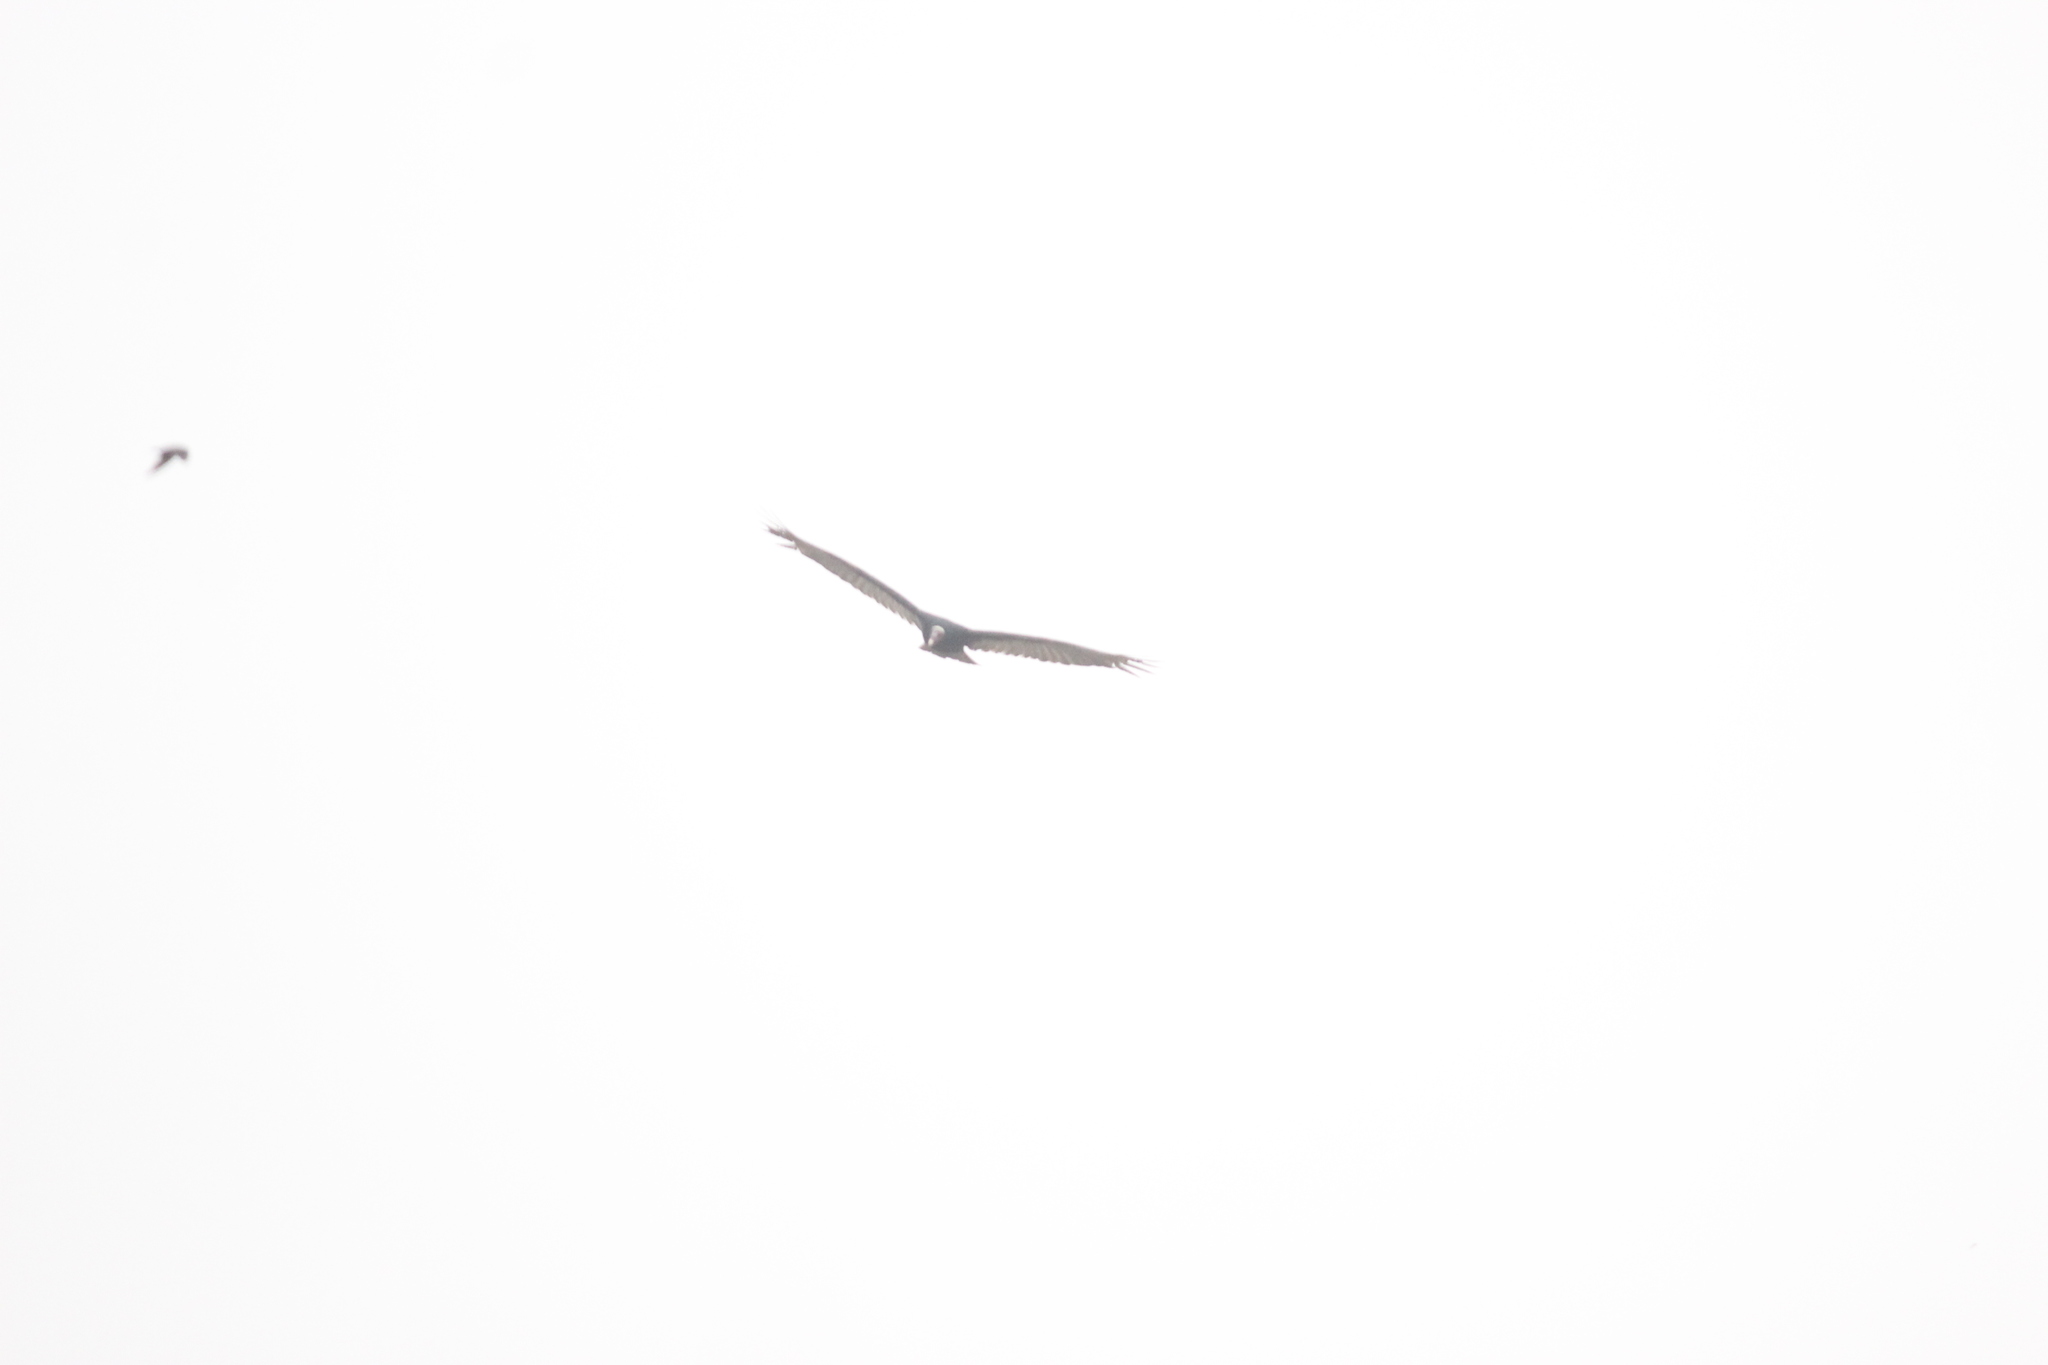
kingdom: Animalia
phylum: Chordata
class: Aves
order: Accipitriformes
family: Cathartidae
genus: Cathartes
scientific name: Cathartes aura
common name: Turkey vulture
